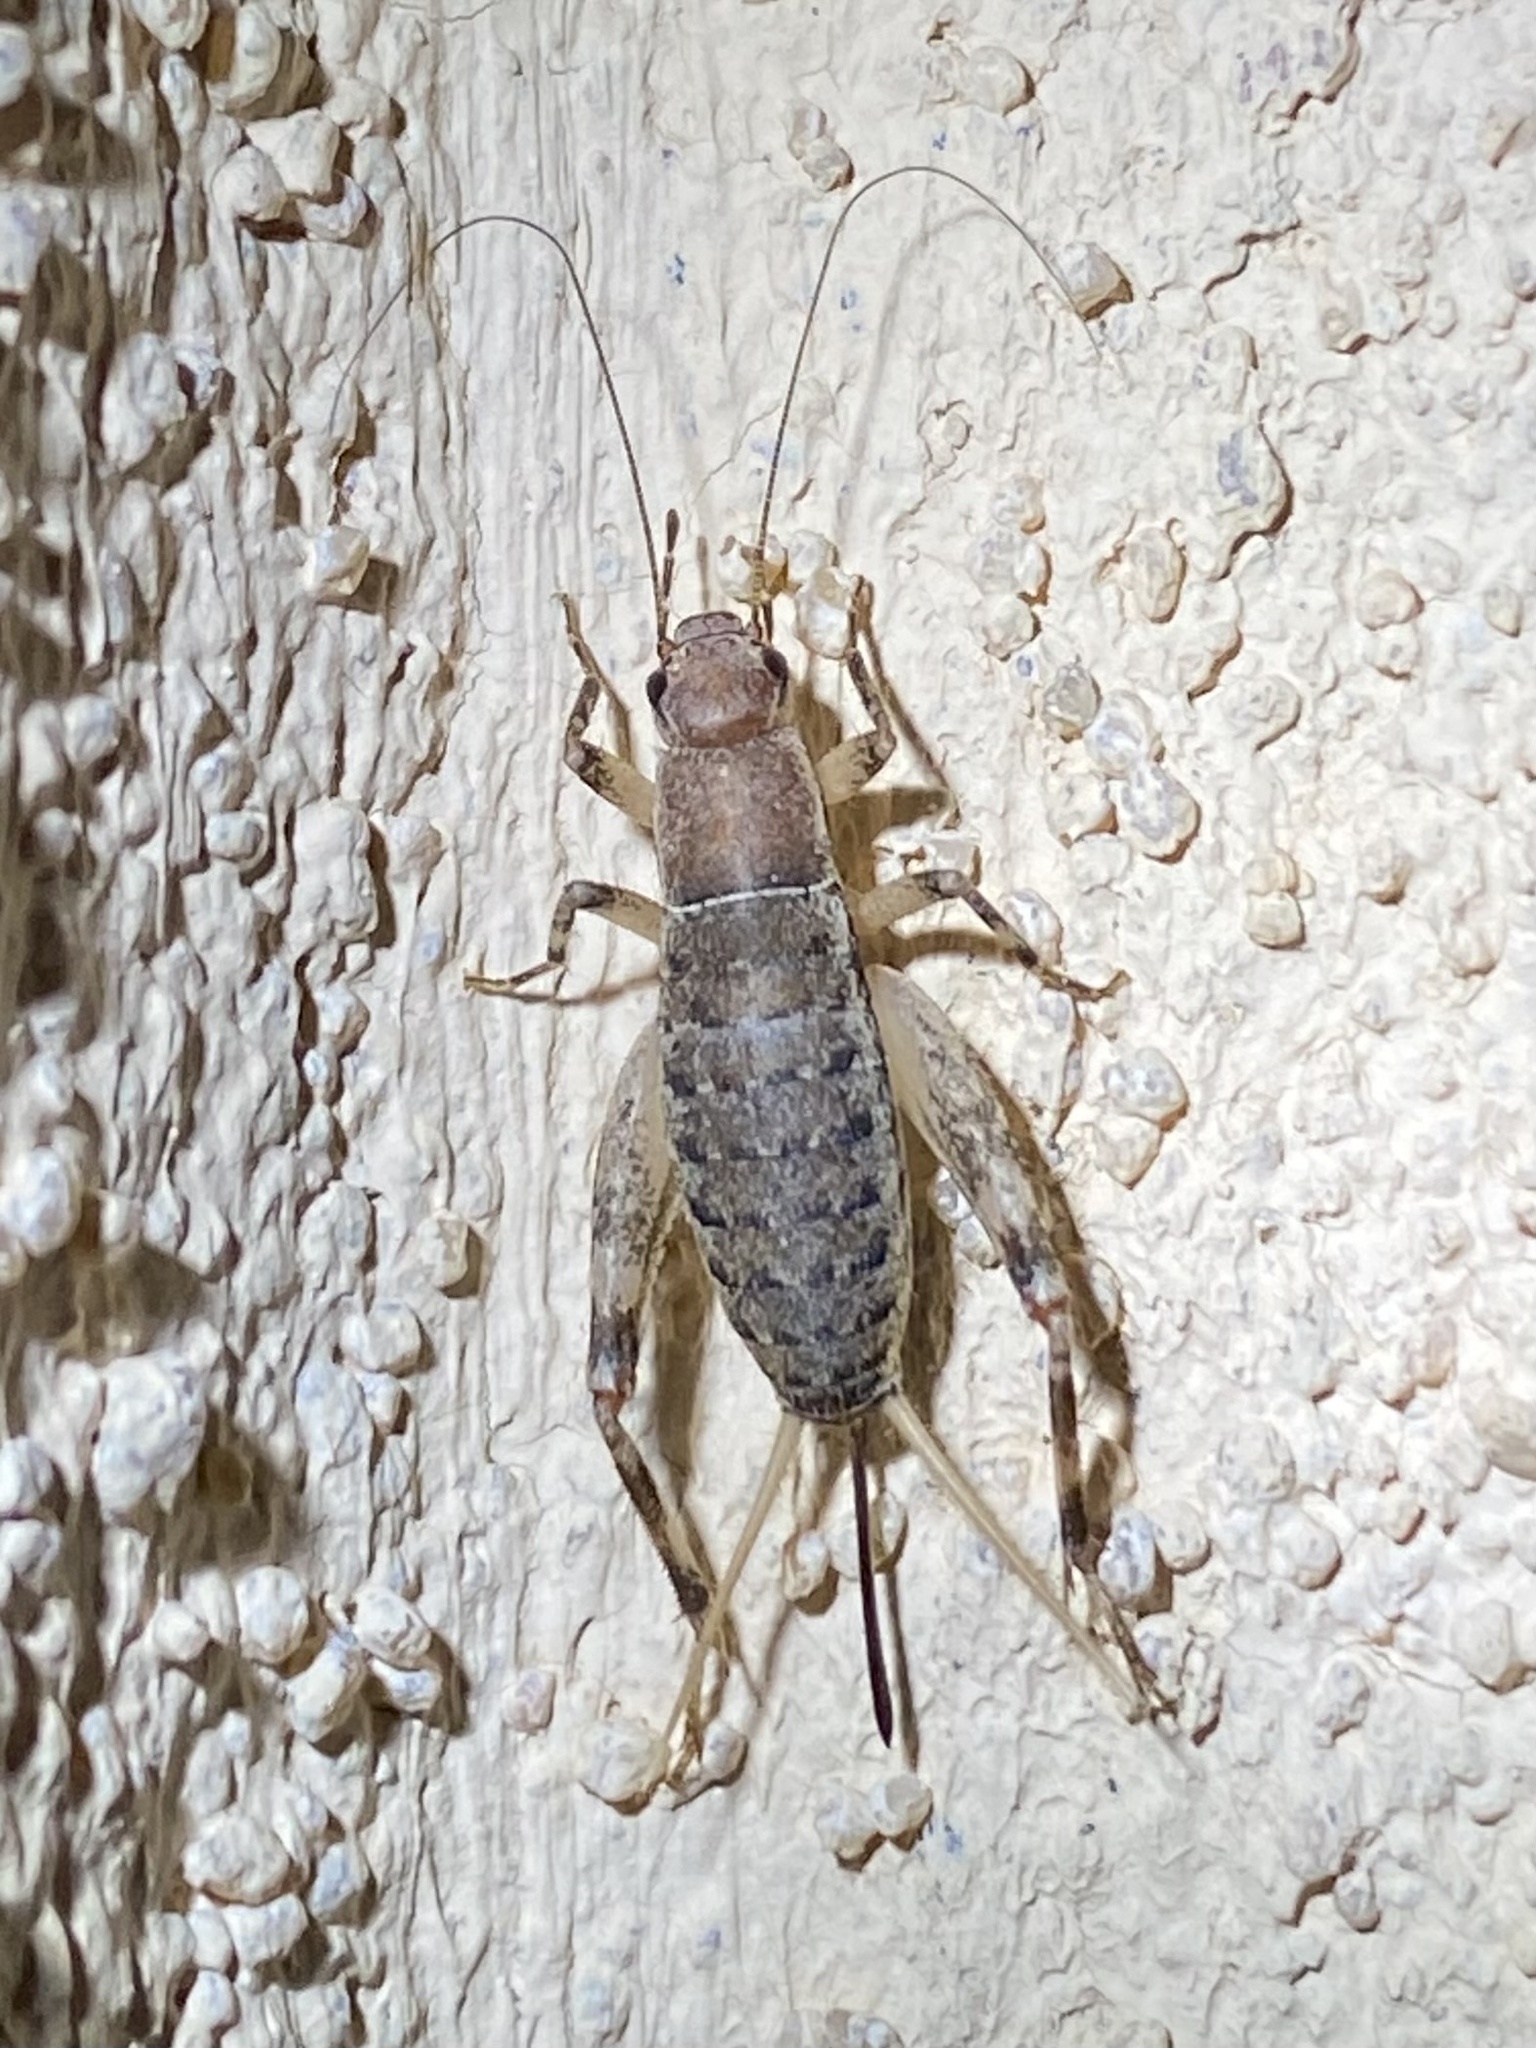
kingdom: Animalia
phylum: Arthropoda
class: Insecta
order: Orthoptera
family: Mogoplistidae
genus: Hoplosphyrum
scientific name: Hoplosphyrum boreale
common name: Long-winged scaly cricket
